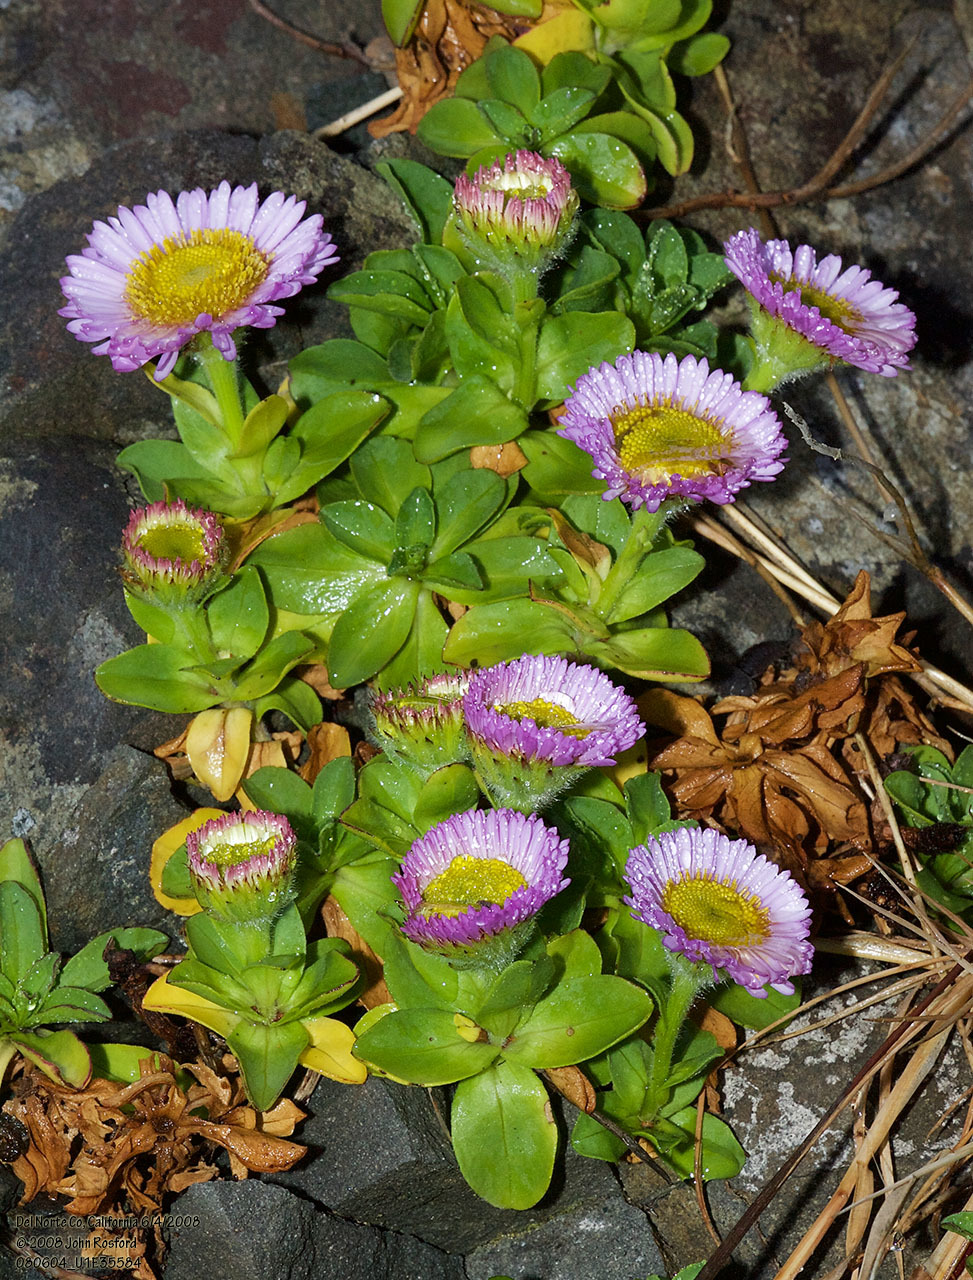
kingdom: Plantae
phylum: Tracheophyta
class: Magnoliopsida
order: Asterales
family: Asteraceae
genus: Erigeron
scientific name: Erigeron glaucus
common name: Seaside daisy
